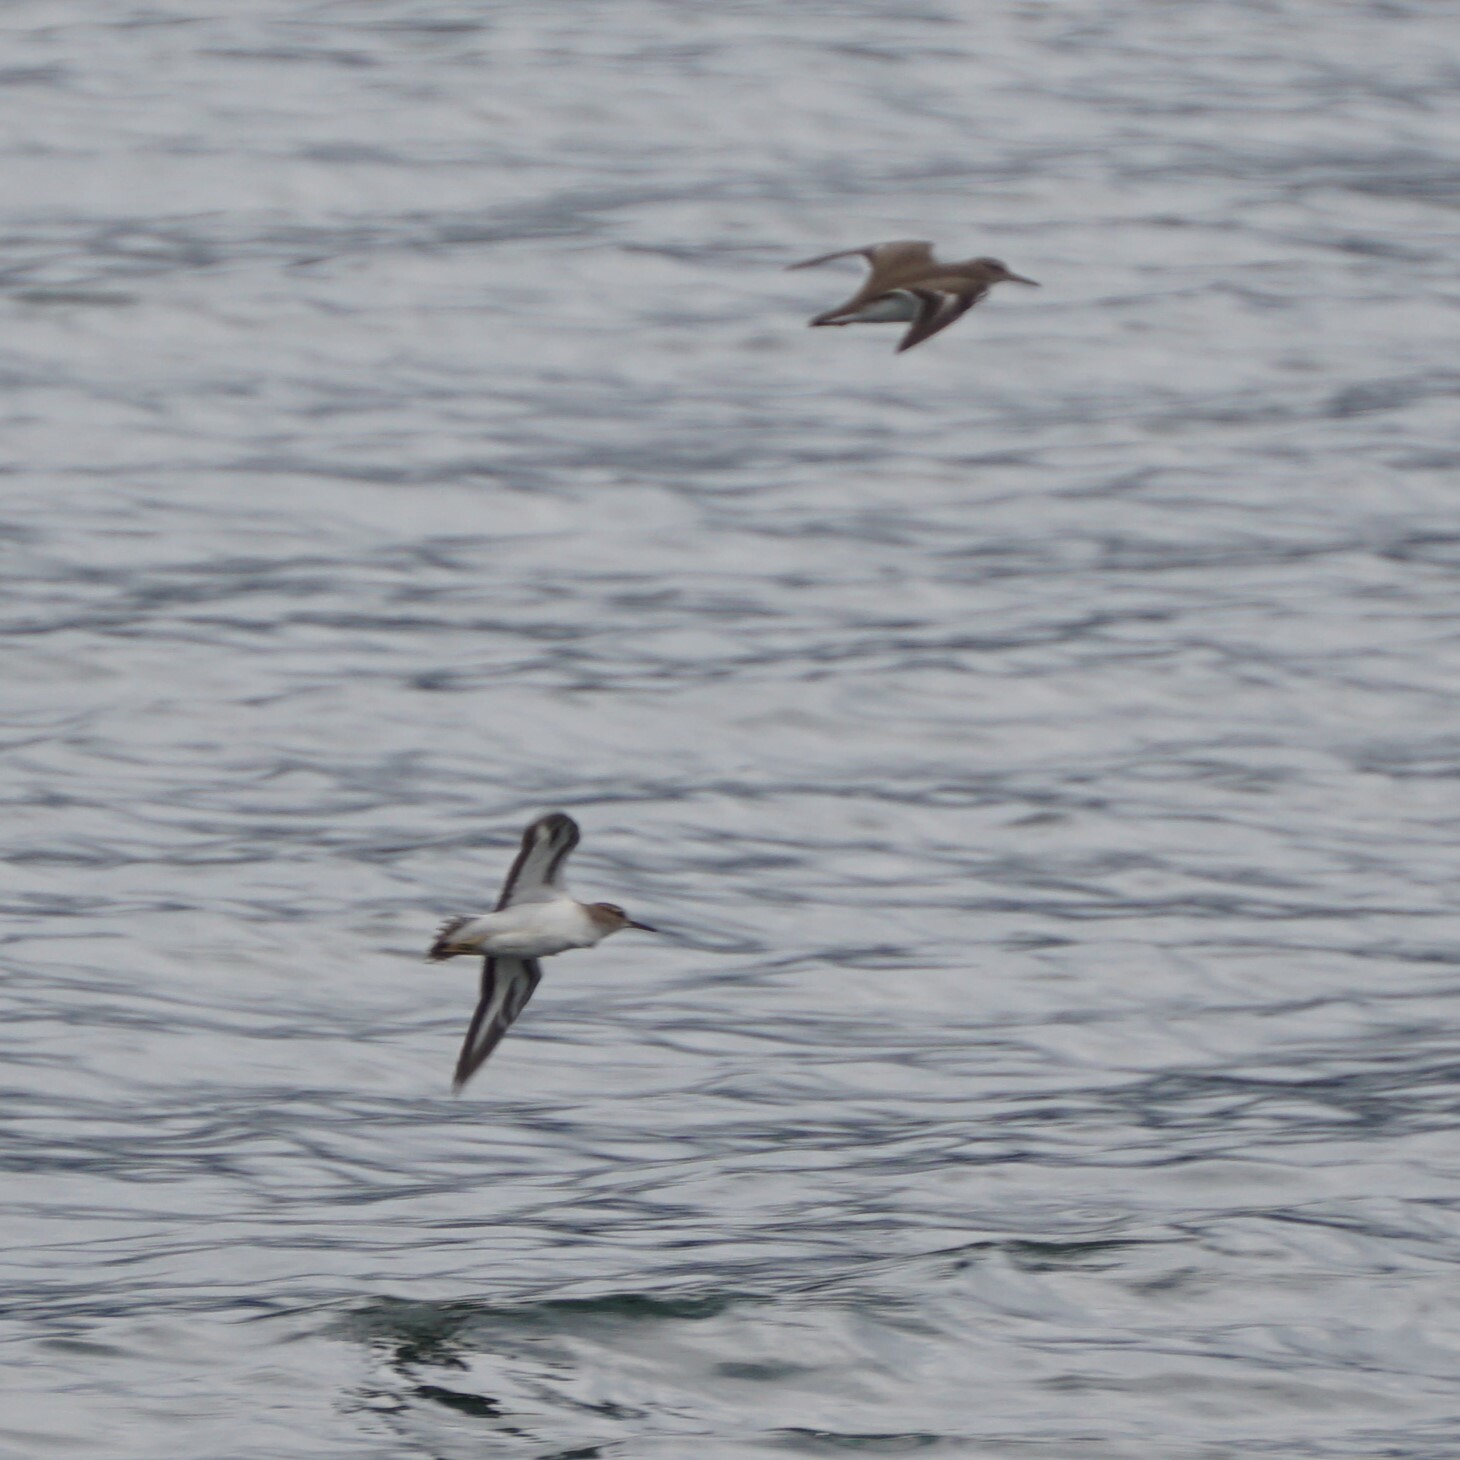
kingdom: Animalia
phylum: Chordata
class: Aves
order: Charadriiformes
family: Scolopacidae
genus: Actitis
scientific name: Actitis macularius
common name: Spotted sandpiper
